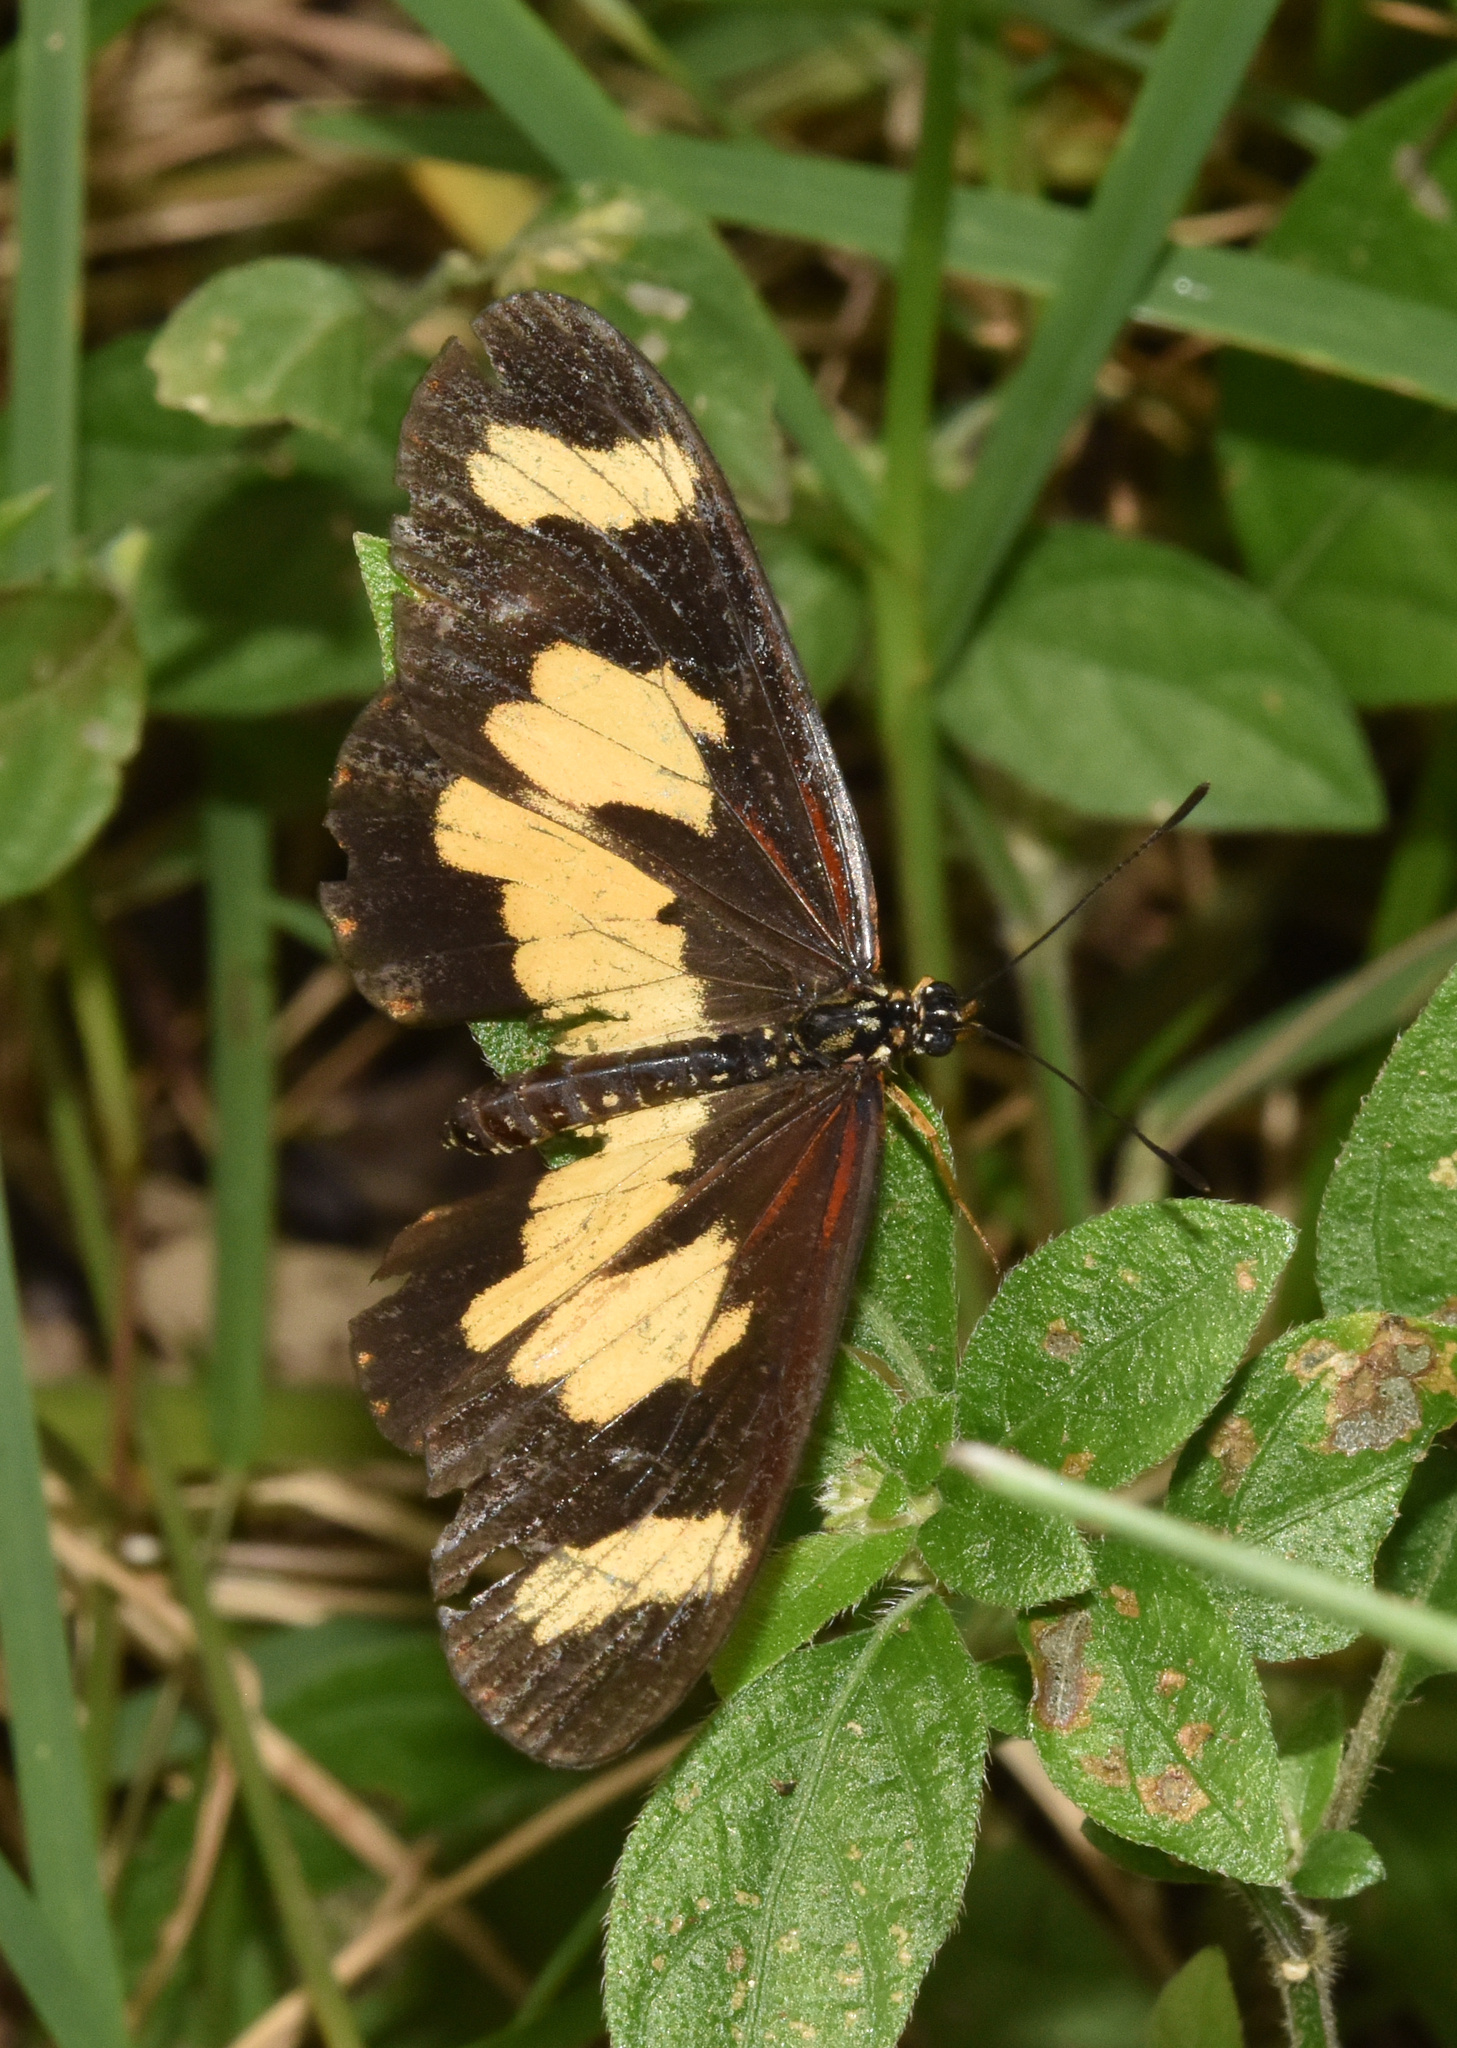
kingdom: Animalia
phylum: Arthropoda
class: Insecta
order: Lepidoptera
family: Nymphalidae
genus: Acraea
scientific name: Acraea cabira
